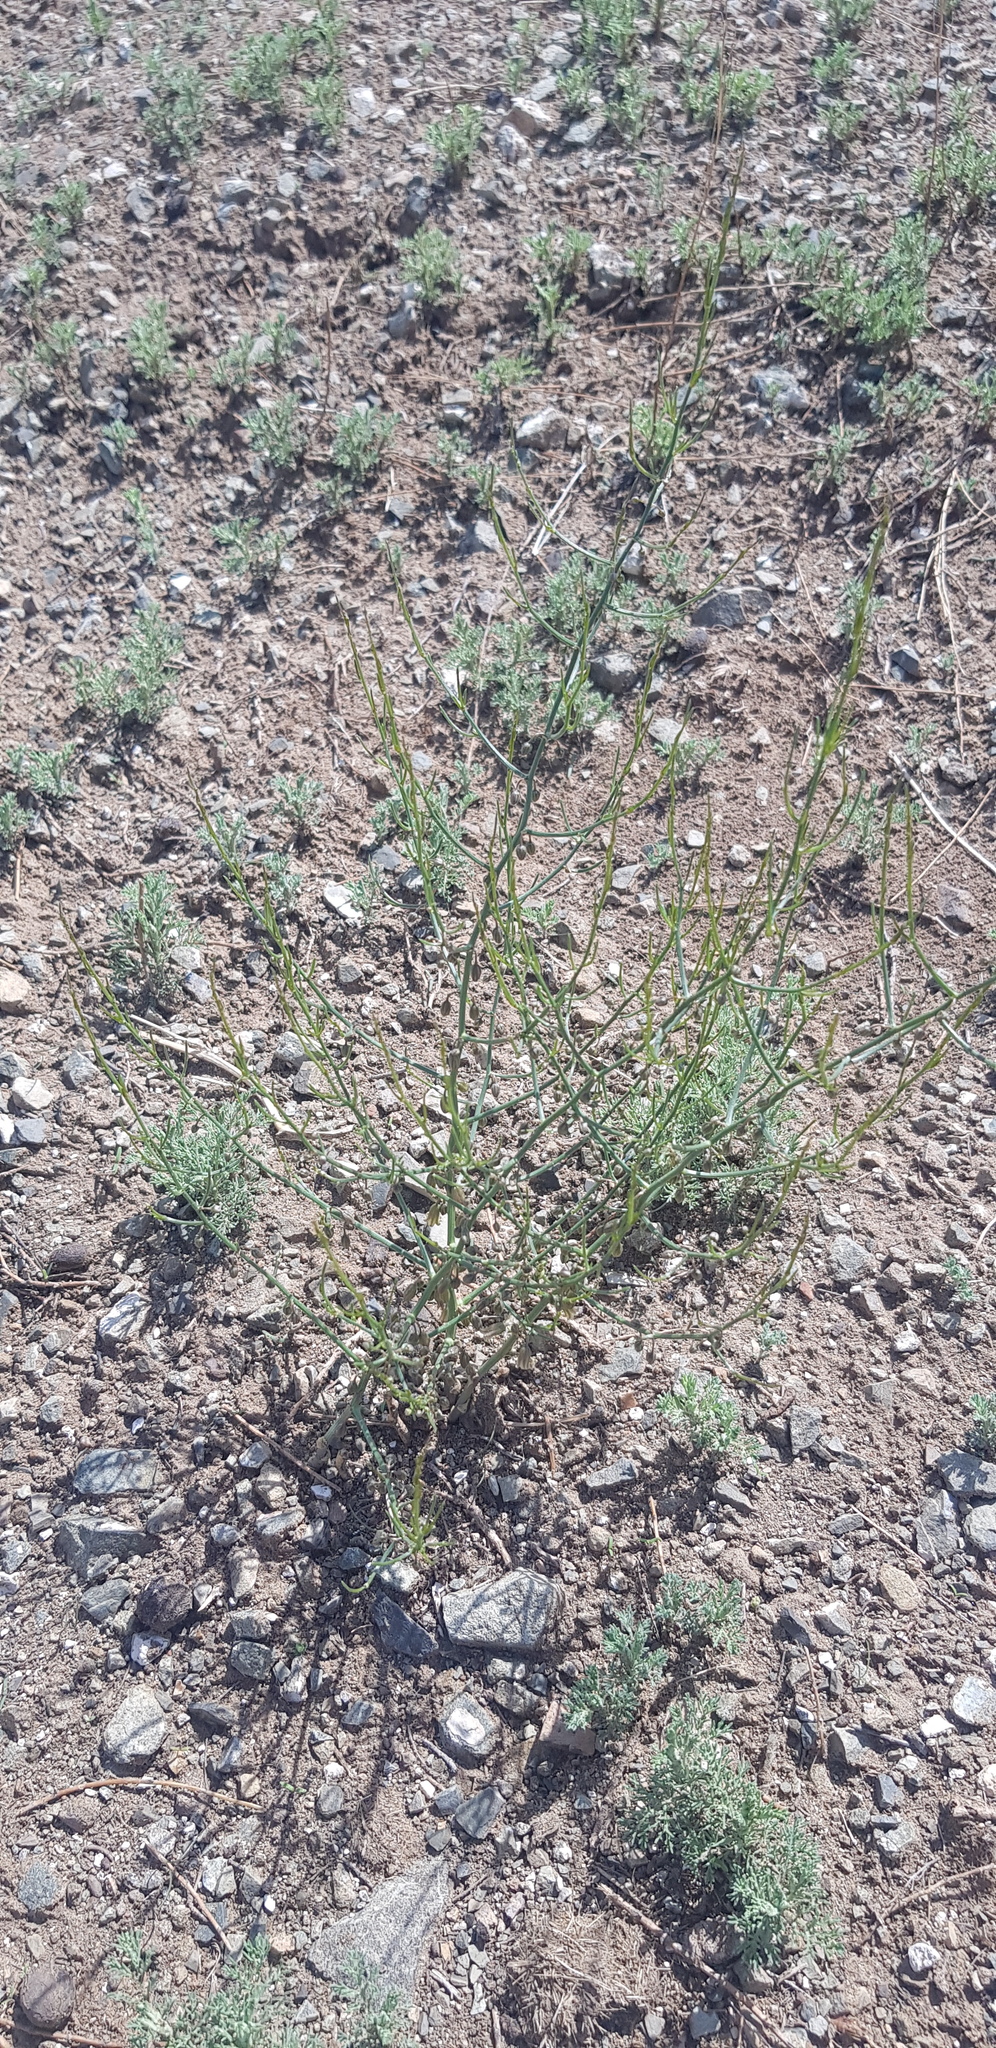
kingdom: Plantae
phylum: Tracheophyta
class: Liliopsida
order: Asparagales
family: Asparagaceae
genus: Asparagus
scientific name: Asparagus dauricus
